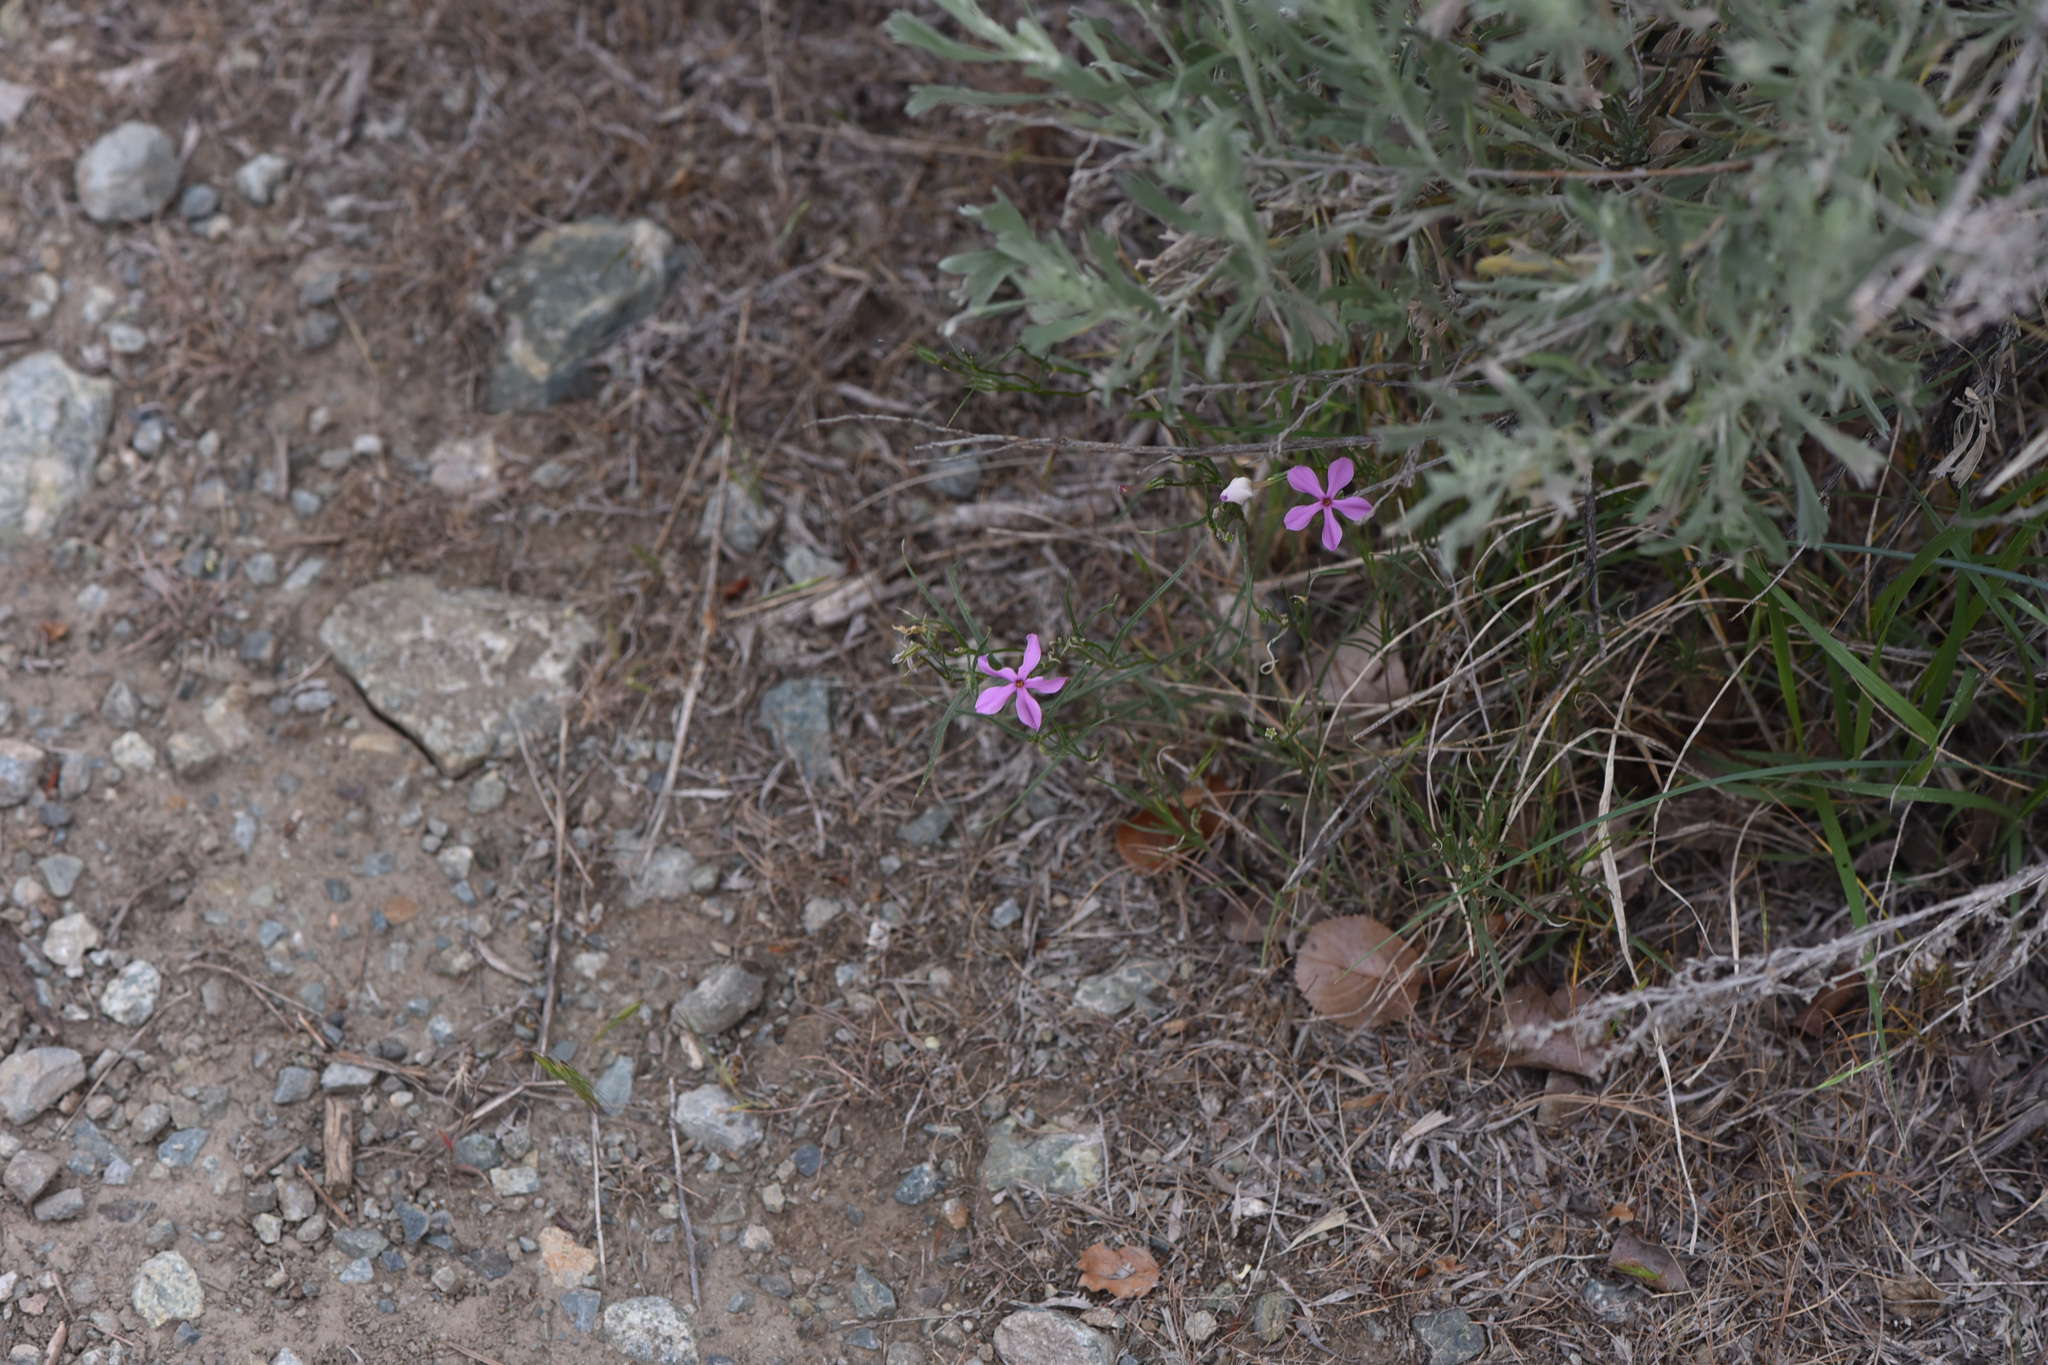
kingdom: Plantae
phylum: Tracheophyta
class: Magnoliopsida
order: Ericales
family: Polemoniaceae
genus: Phlox
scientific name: Phlox longifolia
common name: Longleaf phlox
